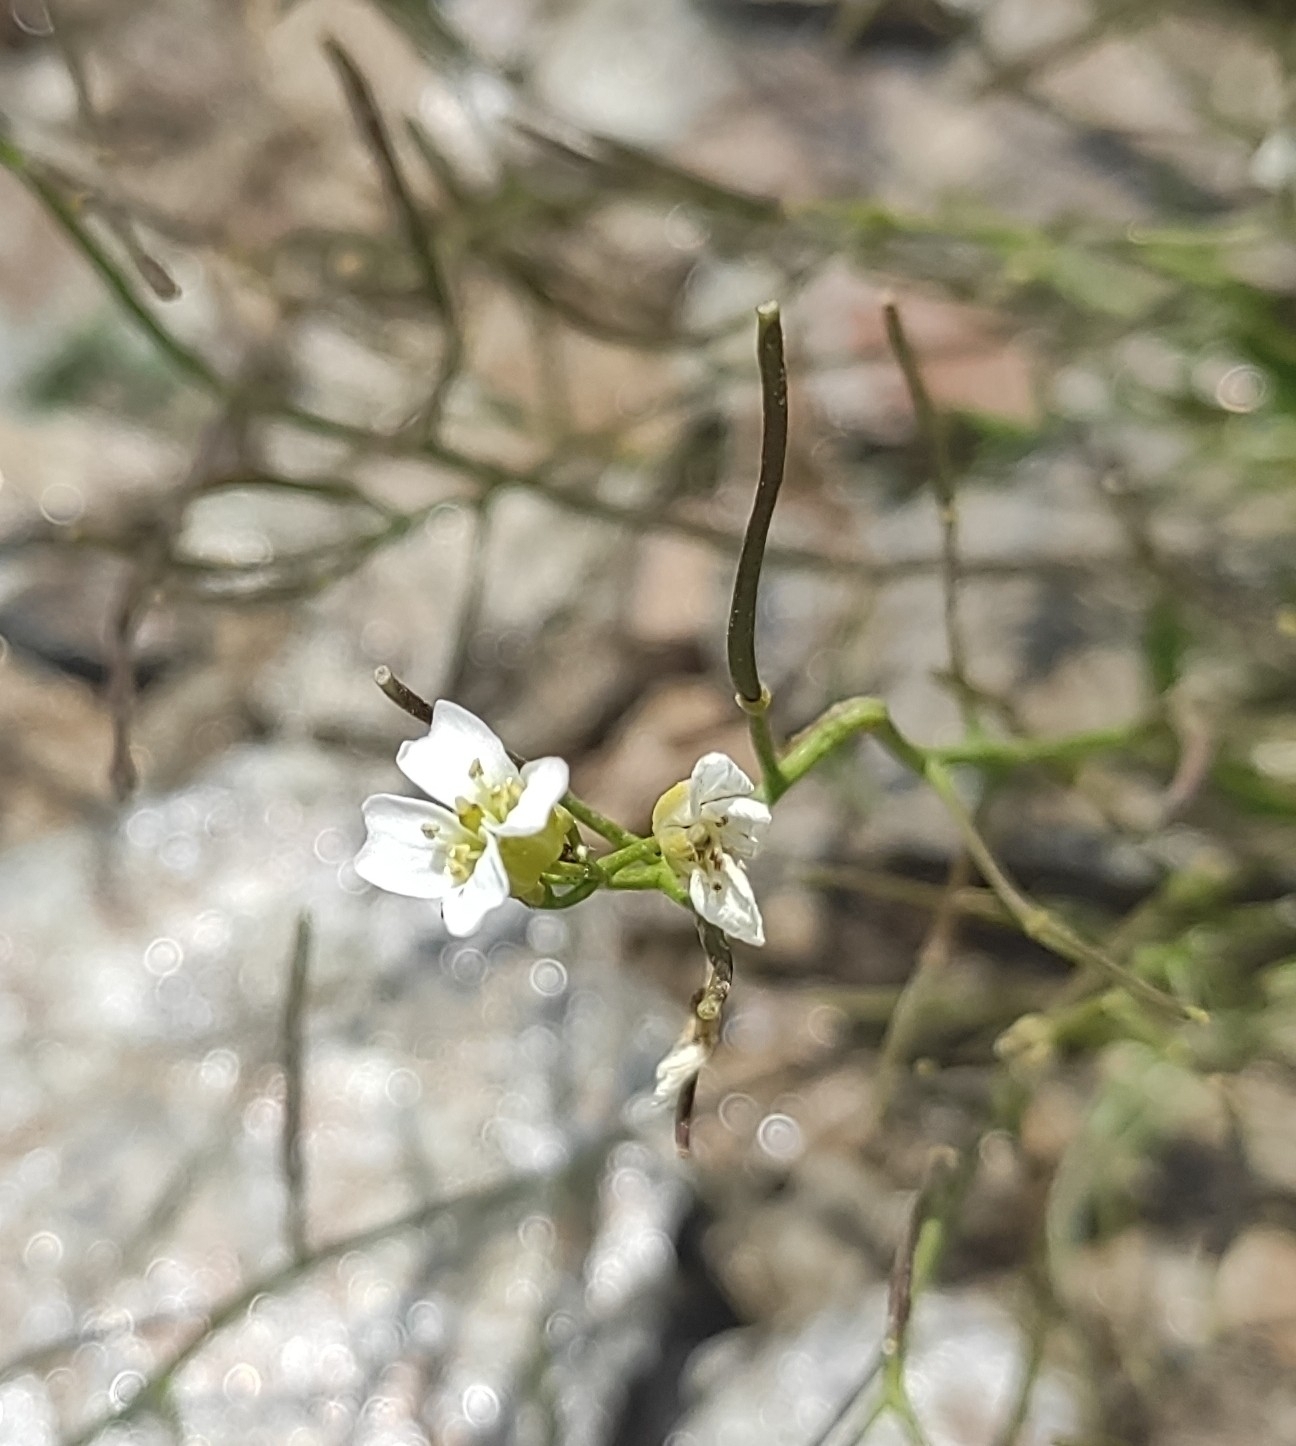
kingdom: Plantae
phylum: Tracheophyta
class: Magnoliopsida
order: Brassicales
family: Brassicaceae
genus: Murbeckiella
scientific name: Murbeckiella huetii
